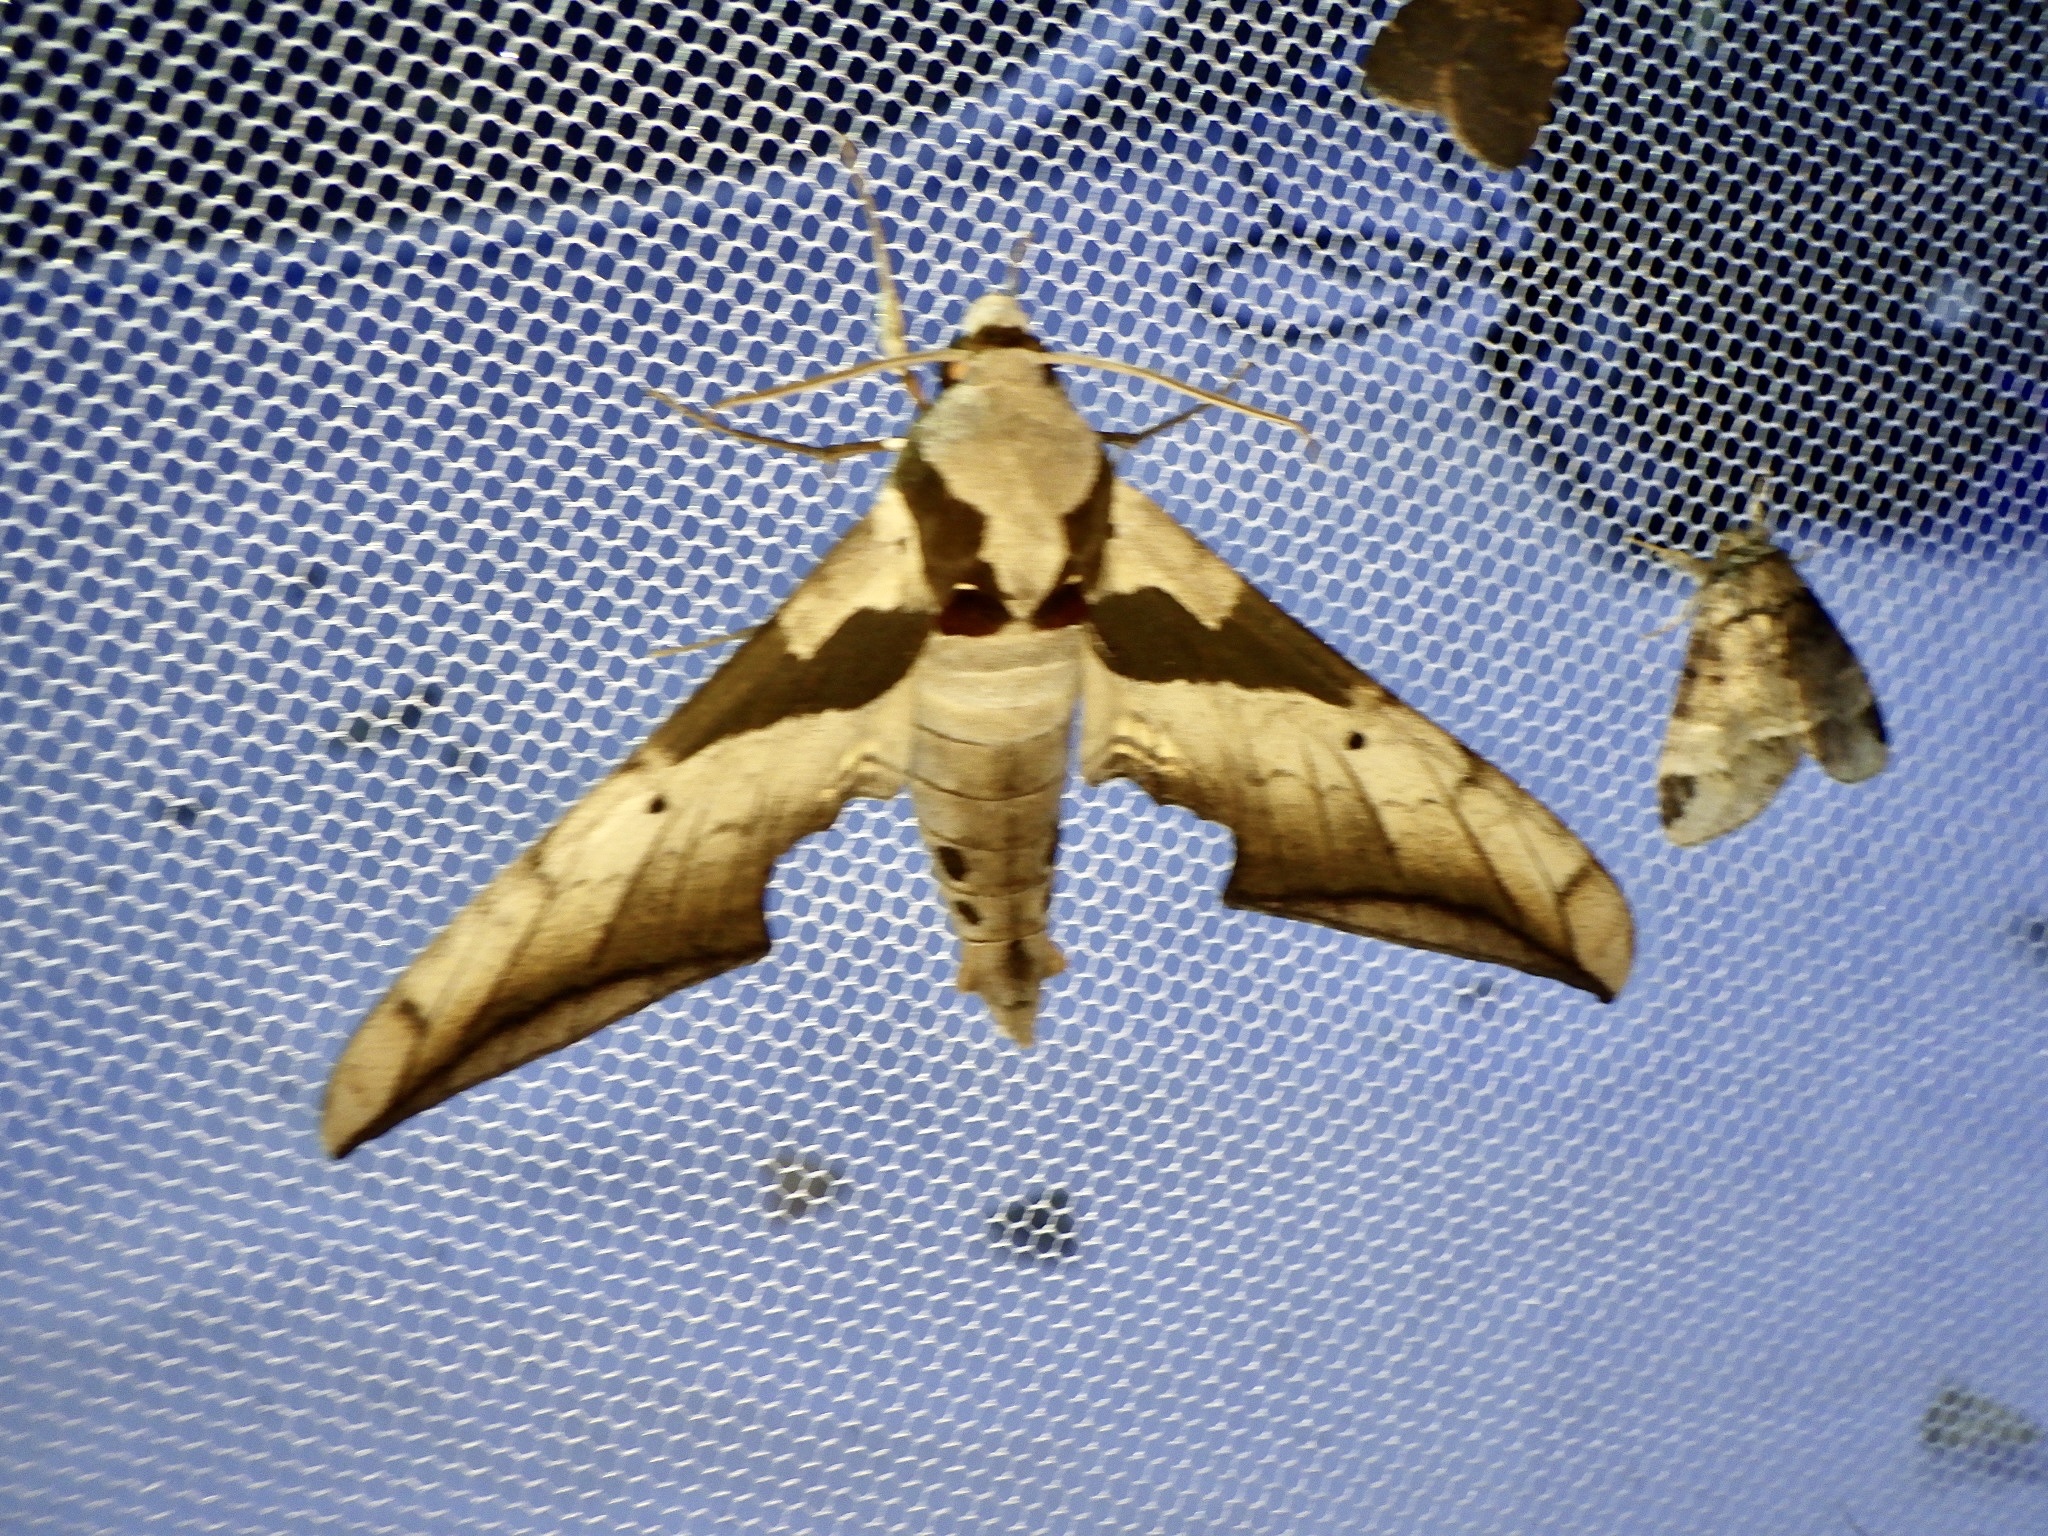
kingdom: Animalia
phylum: Arthropoda
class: Insecta
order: Lepidoptera
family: Sphingidae
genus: Ambulyx
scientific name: Ambulyx japonica
